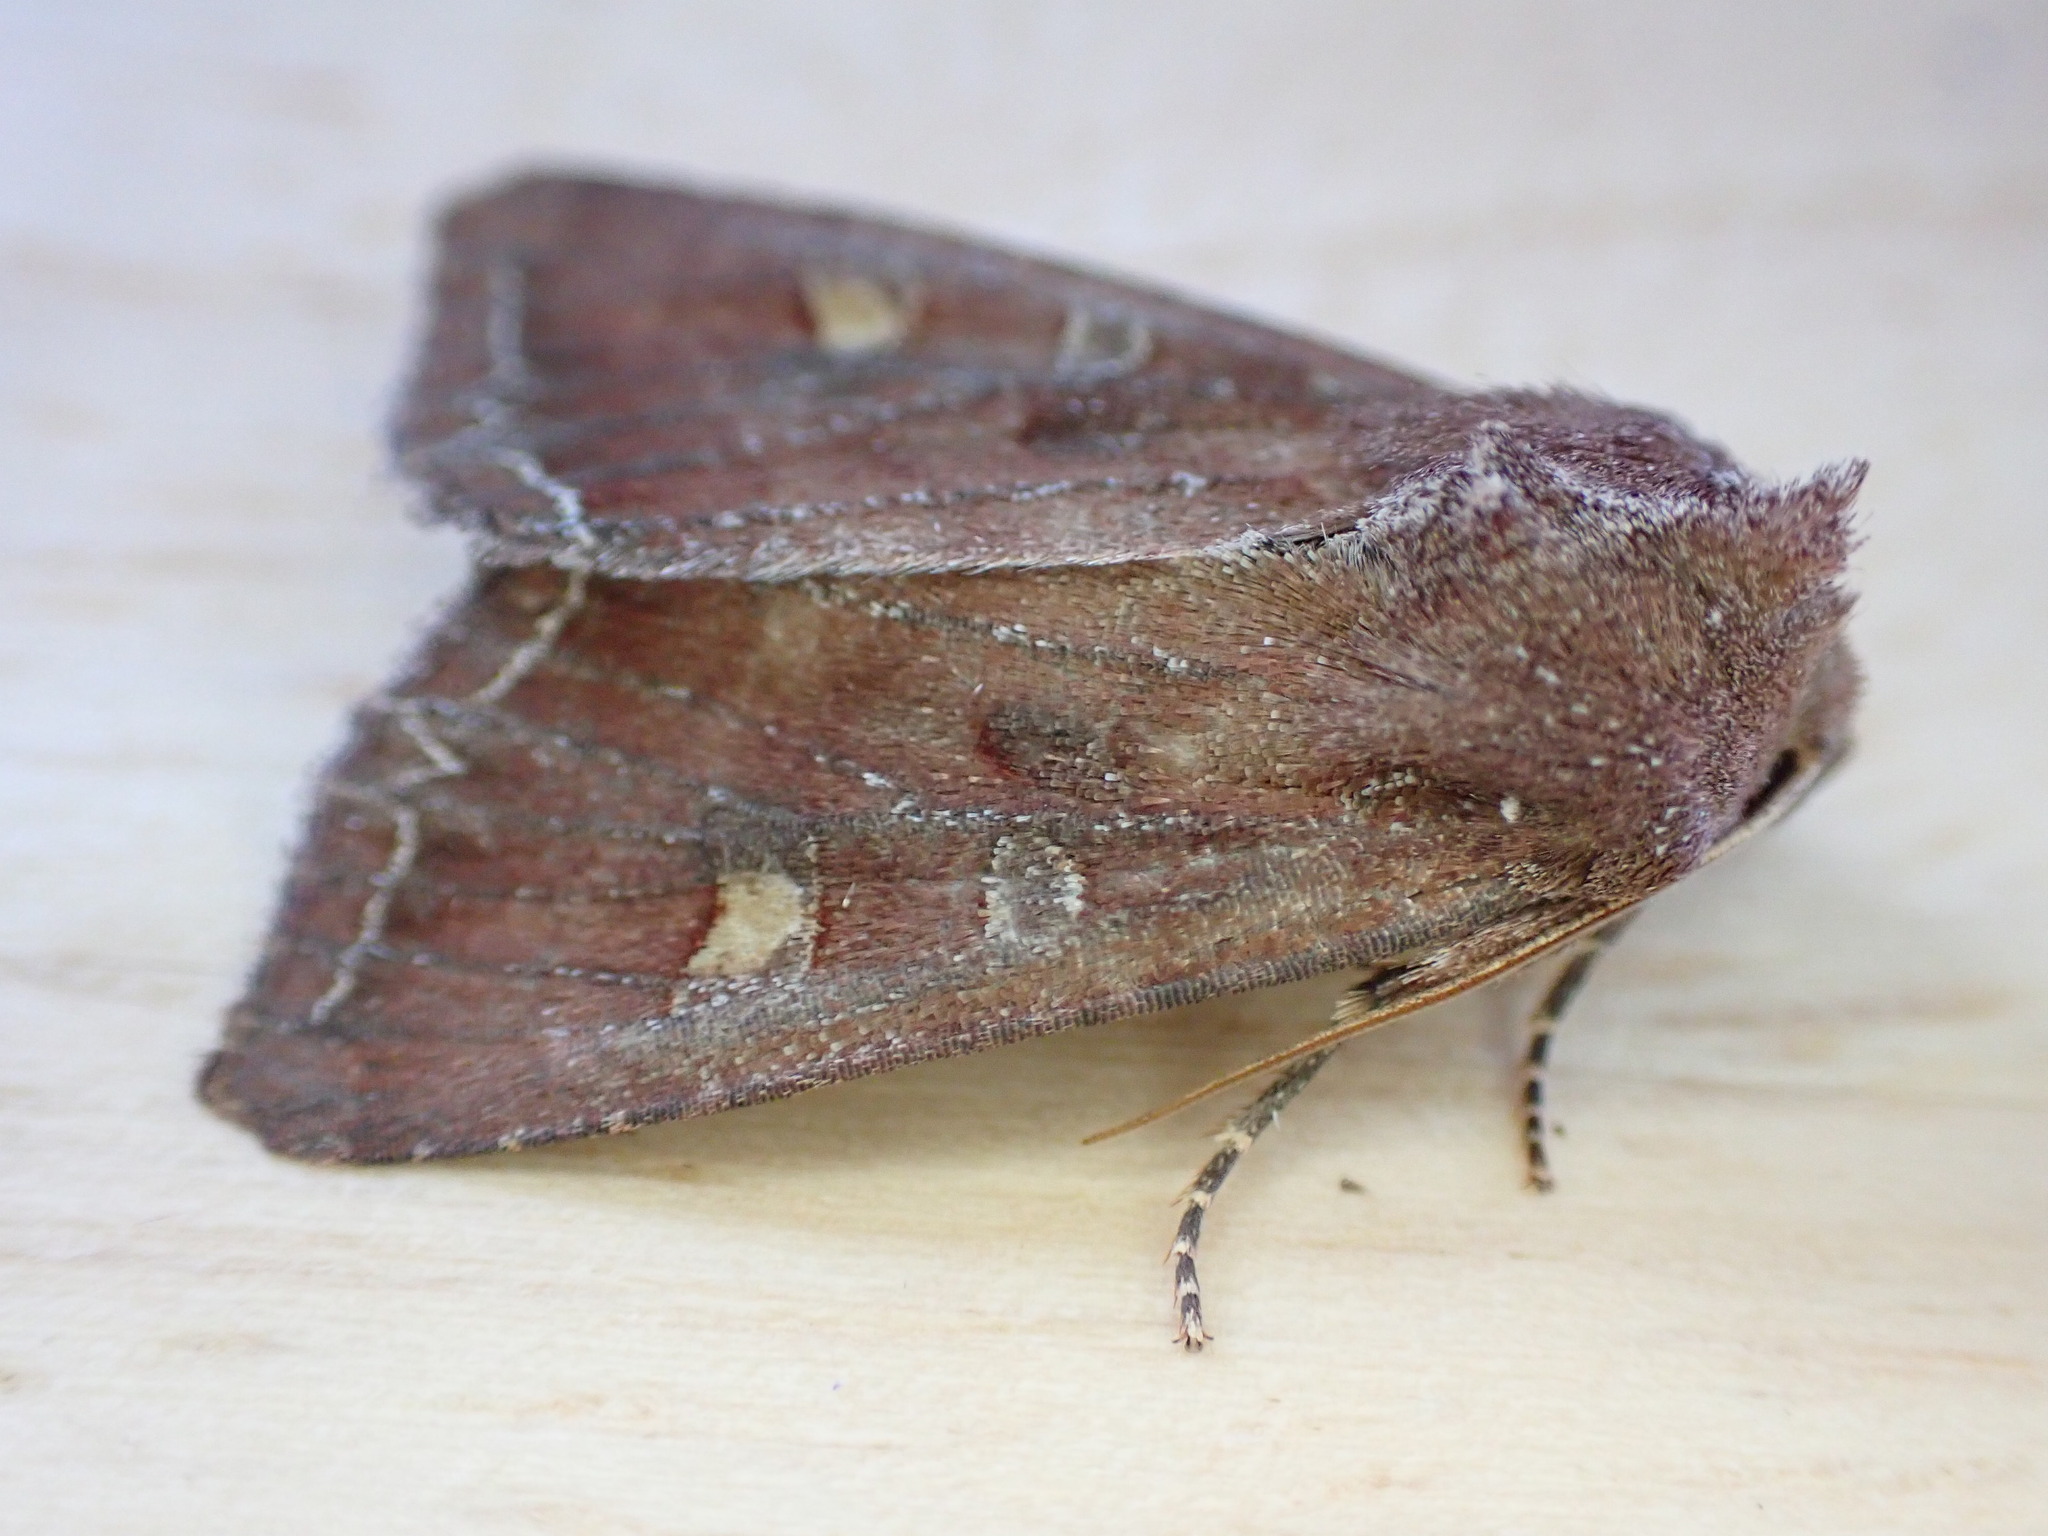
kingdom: Animalia
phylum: Arthropoda
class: Insecta
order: Lepidoptera
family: Noctuidae
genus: Lacanobia
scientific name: Lacanobia oleracea
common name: Bright-line brown-eye
